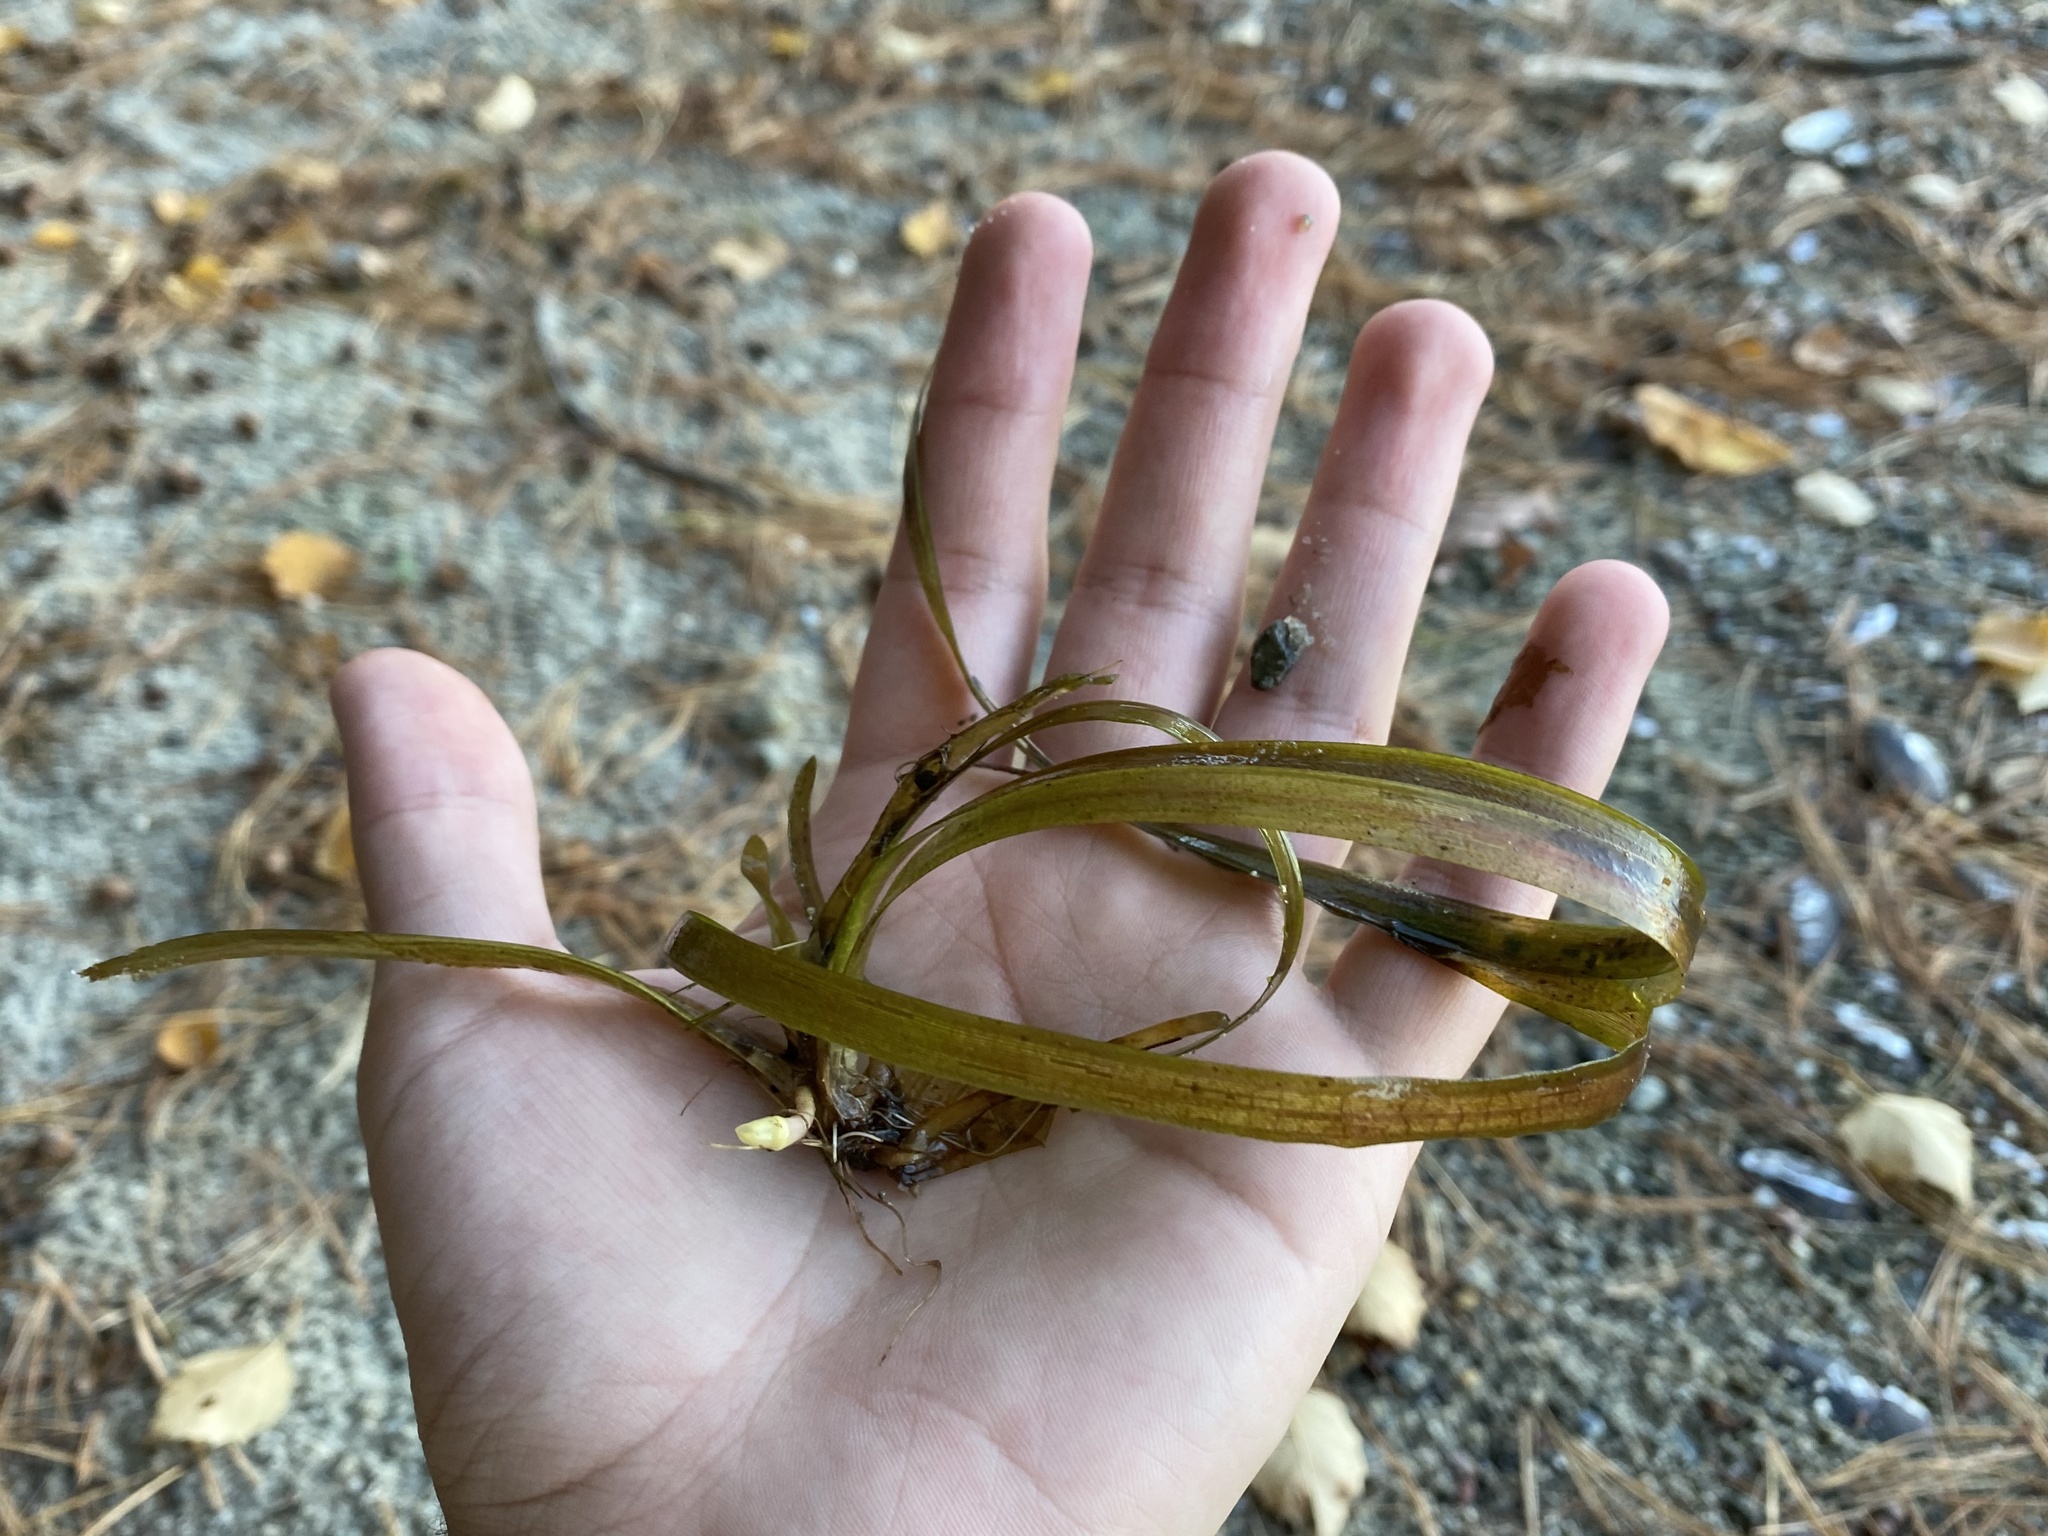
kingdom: Plantae
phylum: Tracheophyta
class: Liliopsida
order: Alismatales
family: Hydrocharitaceae
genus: Vallisneria
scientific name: Vallisneria americana
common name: American eelgrass
